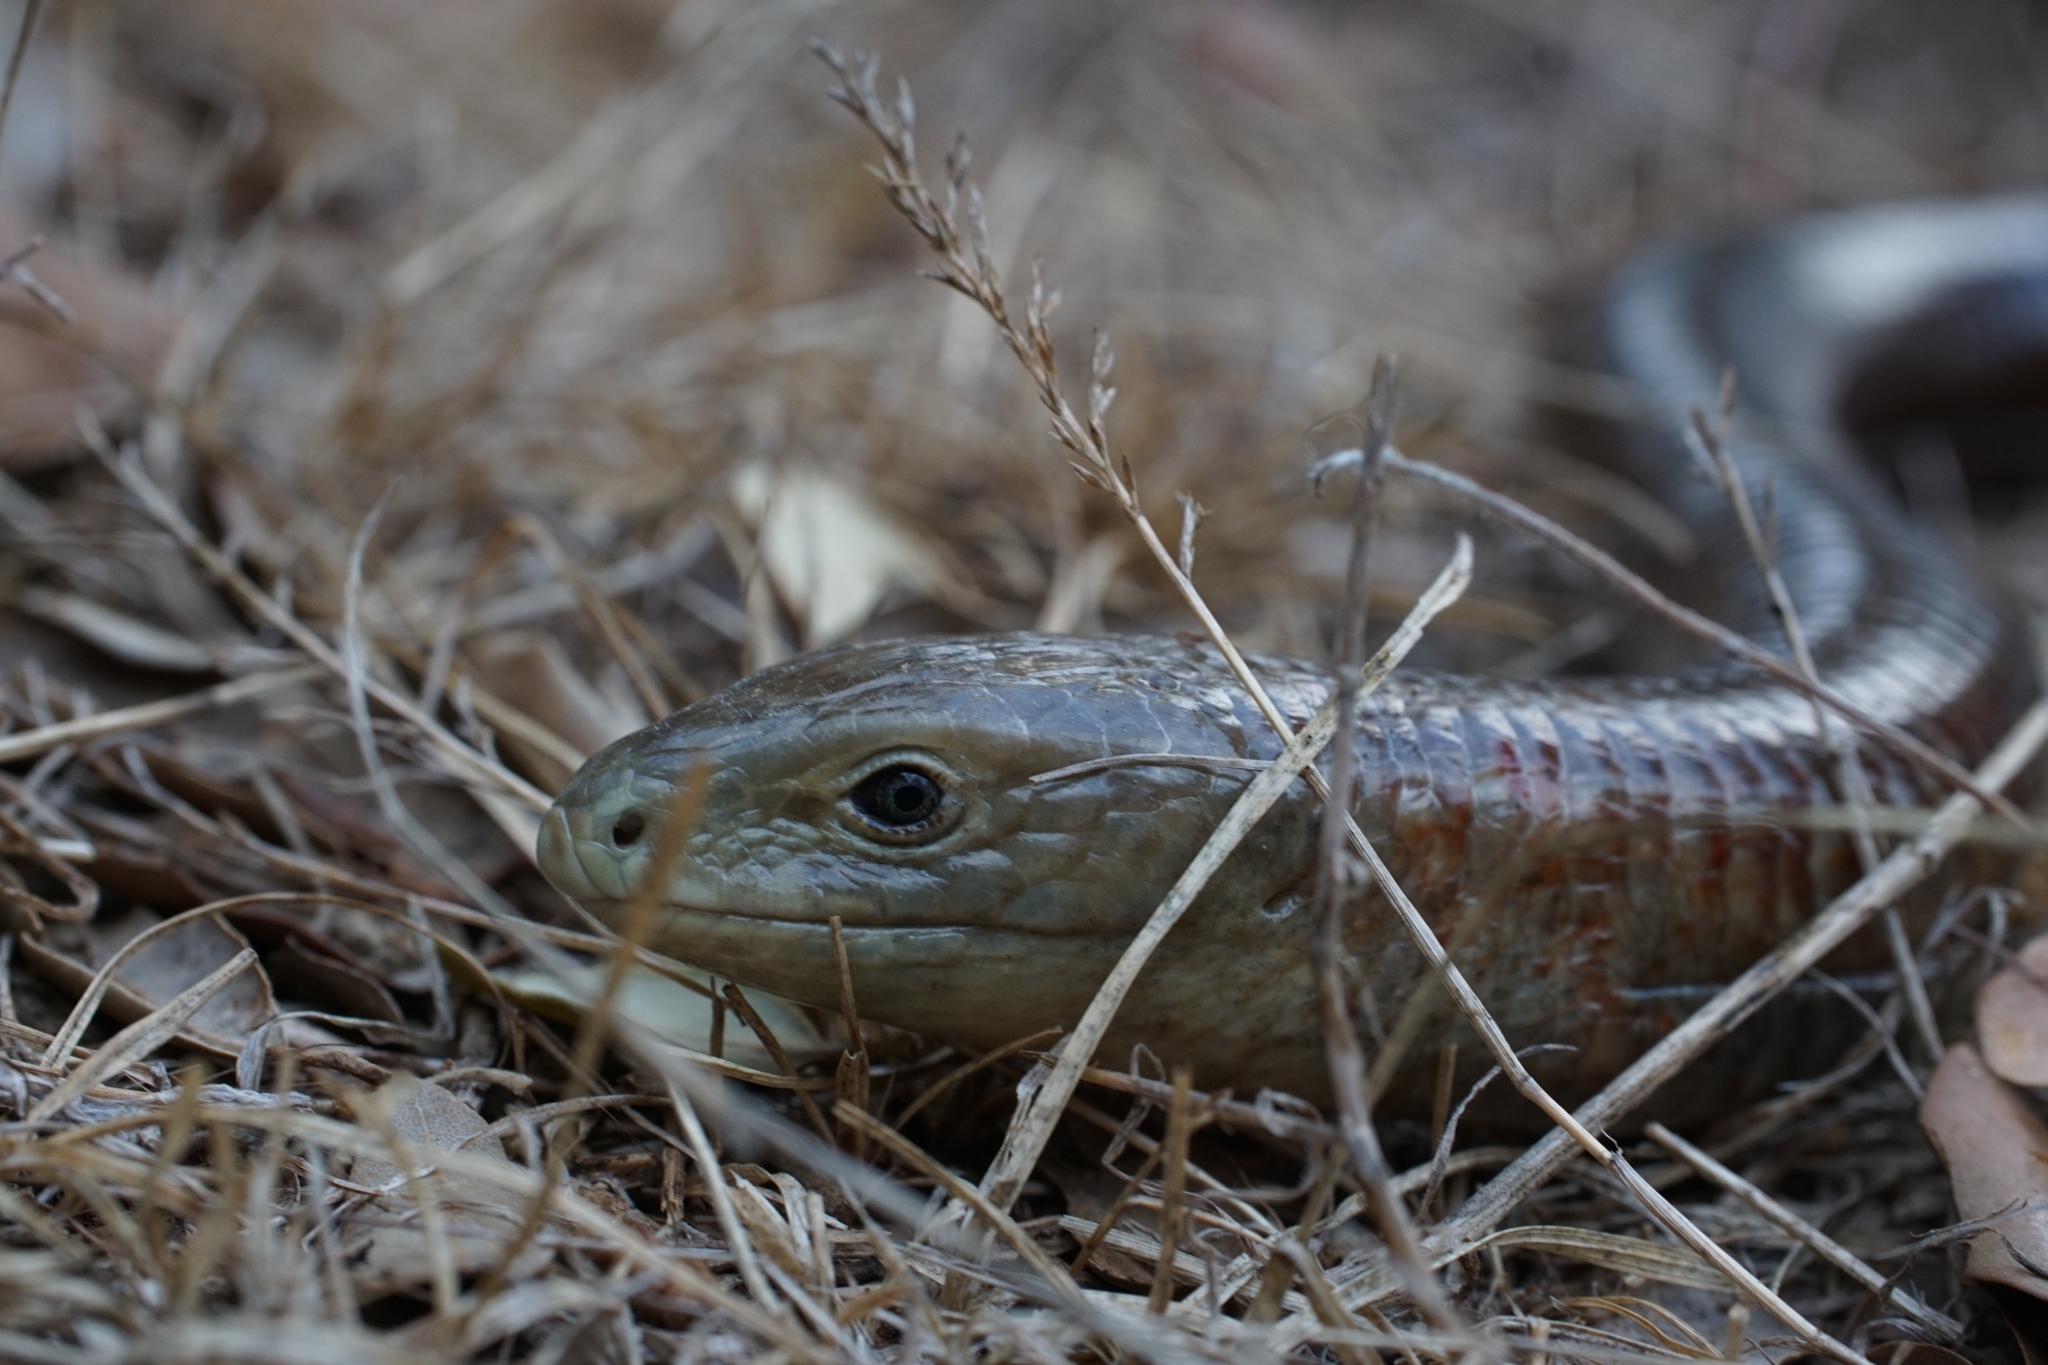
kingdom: Animalia
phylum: Chordata
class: Squamata
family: Anguidae
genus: Pseudopus
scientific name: Pseudopus apodus
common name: European glass lizard
